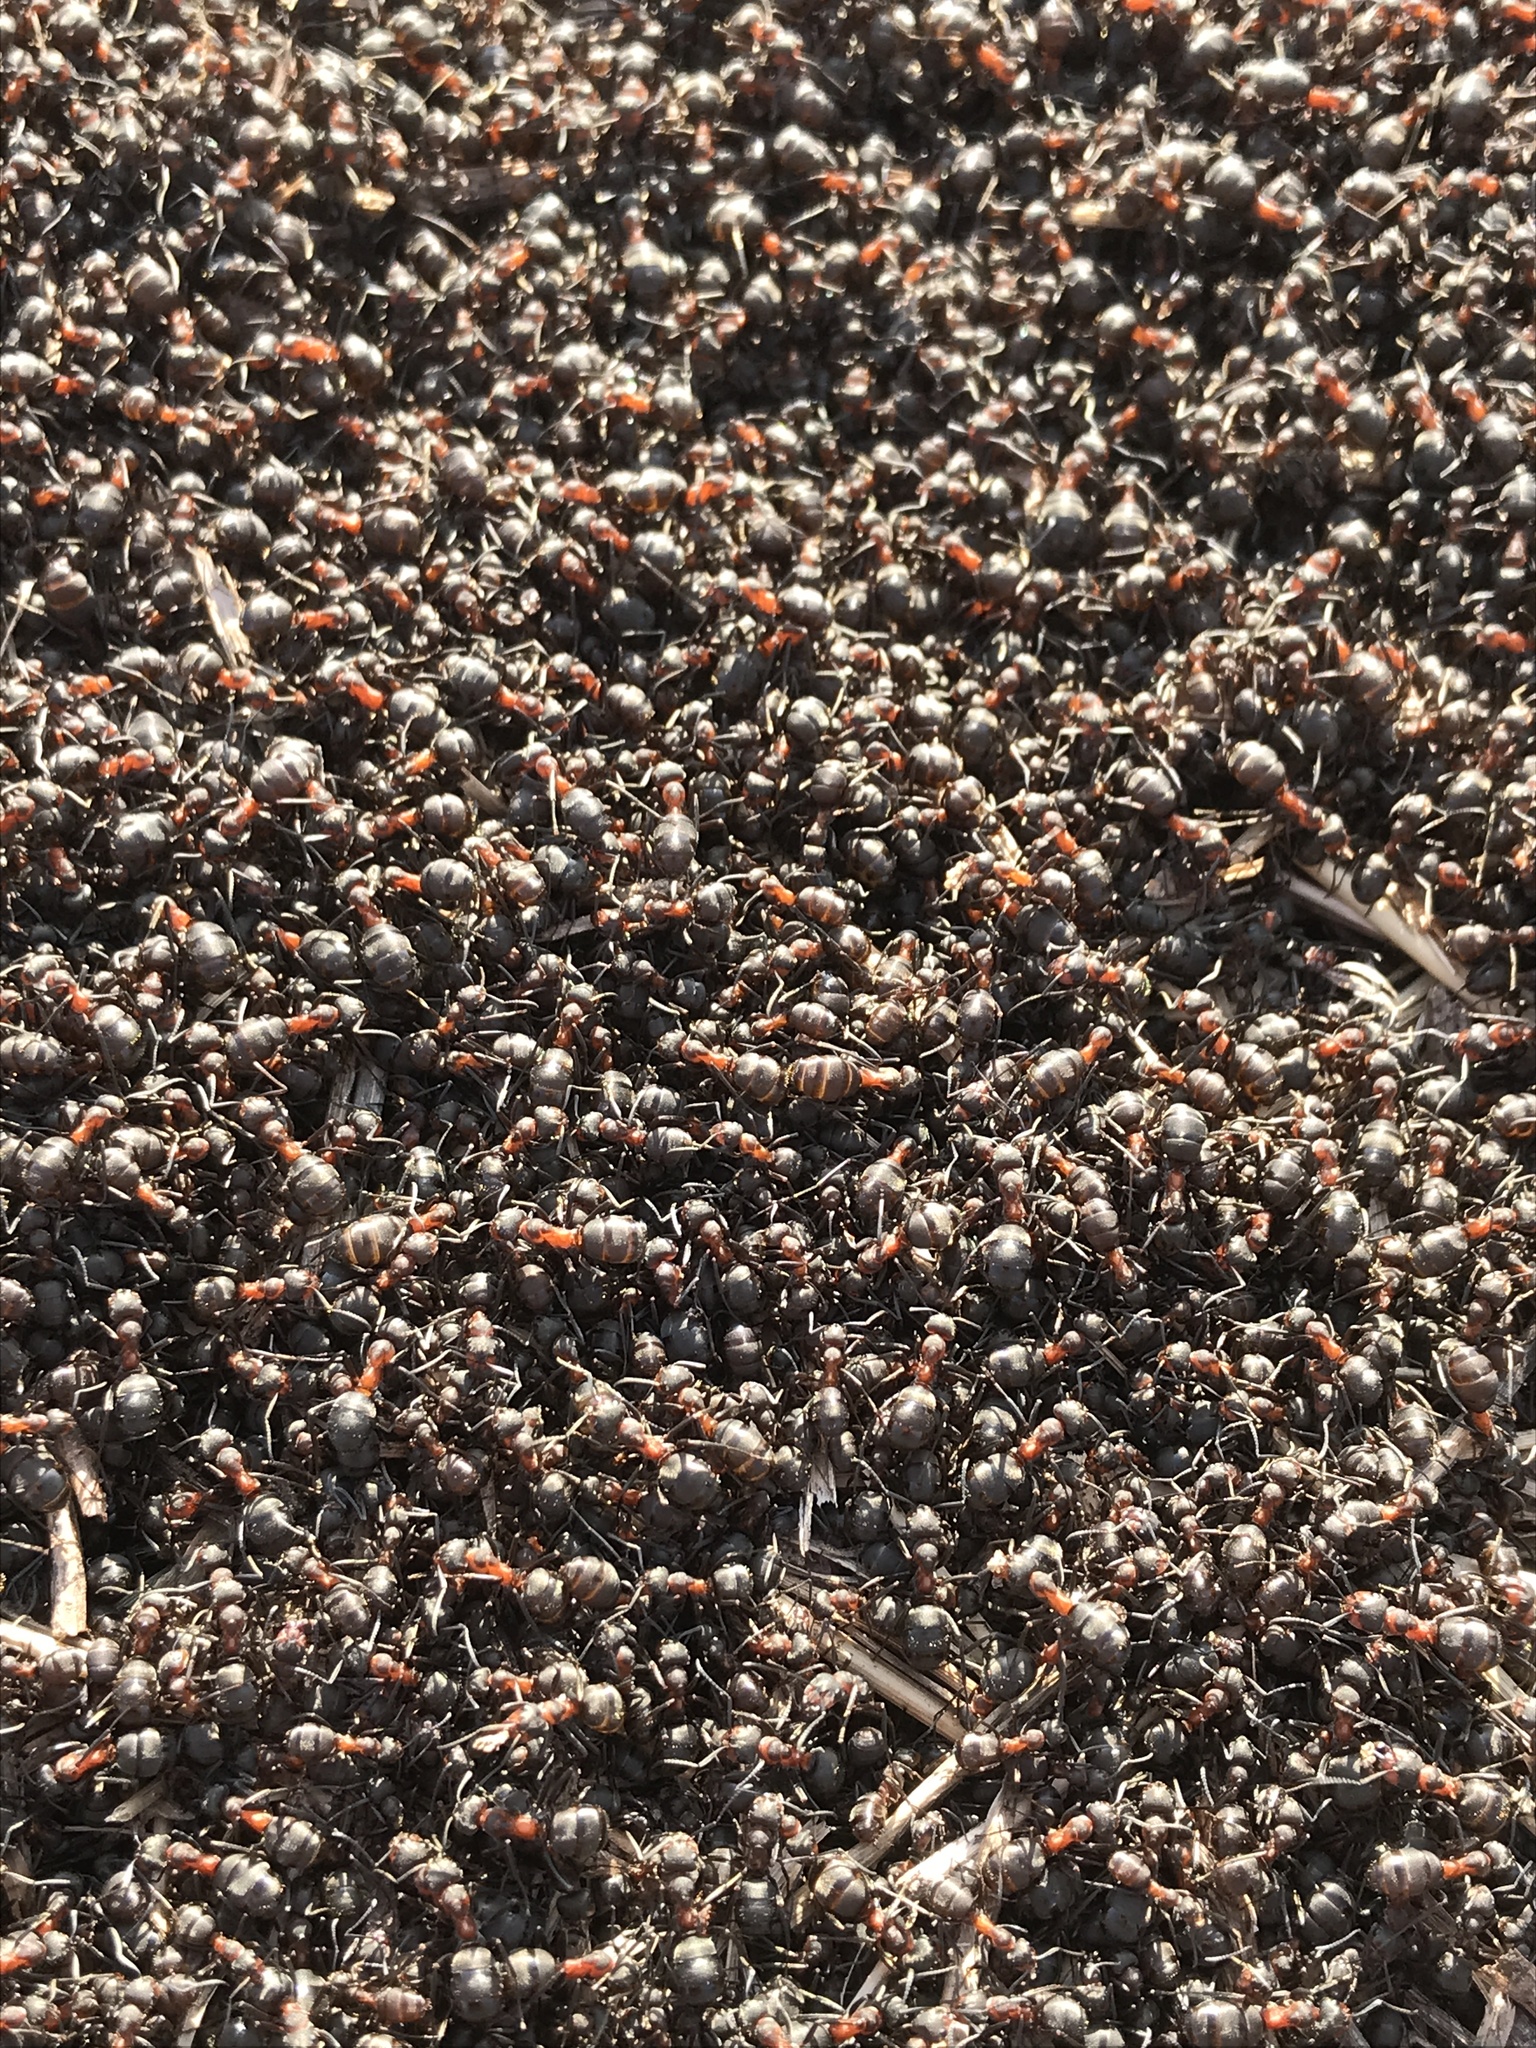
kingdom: Animalia
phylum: Arthropoda
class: Insecta
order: Hymenoptera
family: Formicidae
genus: Formica
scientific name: Formica pratensis
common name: European red wood ant
